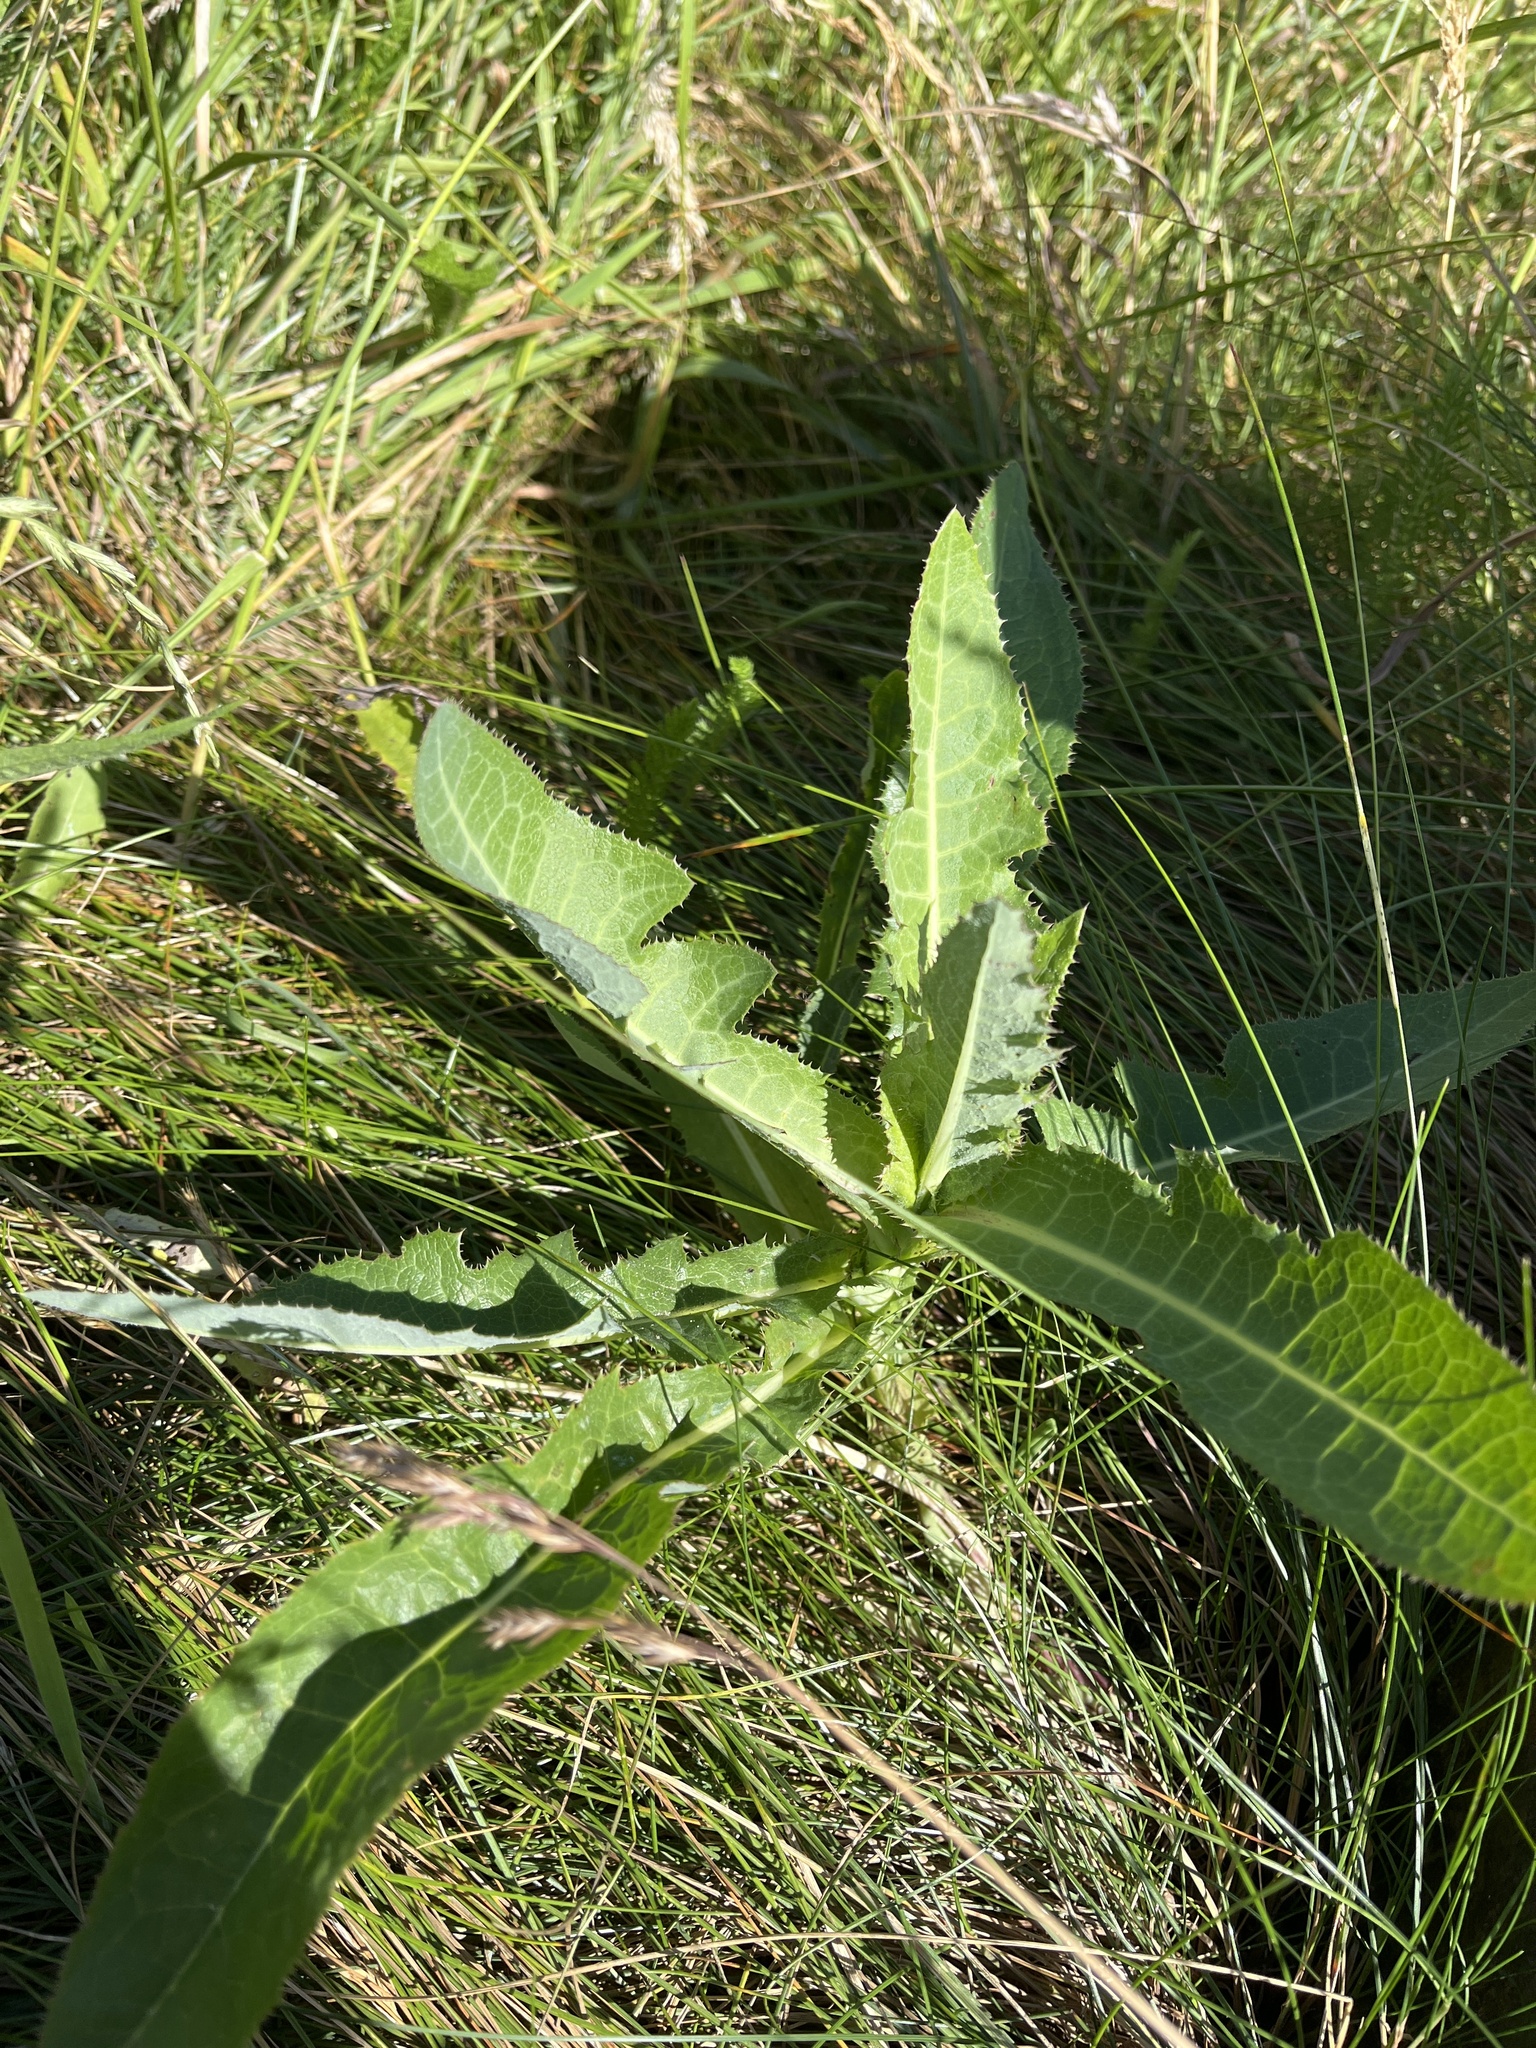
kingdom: Plantae
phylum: Tracheophyta
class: Magnoliopsida
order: Asterales
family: Asteraceae
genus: Sonchus
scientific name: Sonchus arvensis
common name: Perennial sow-thistle
